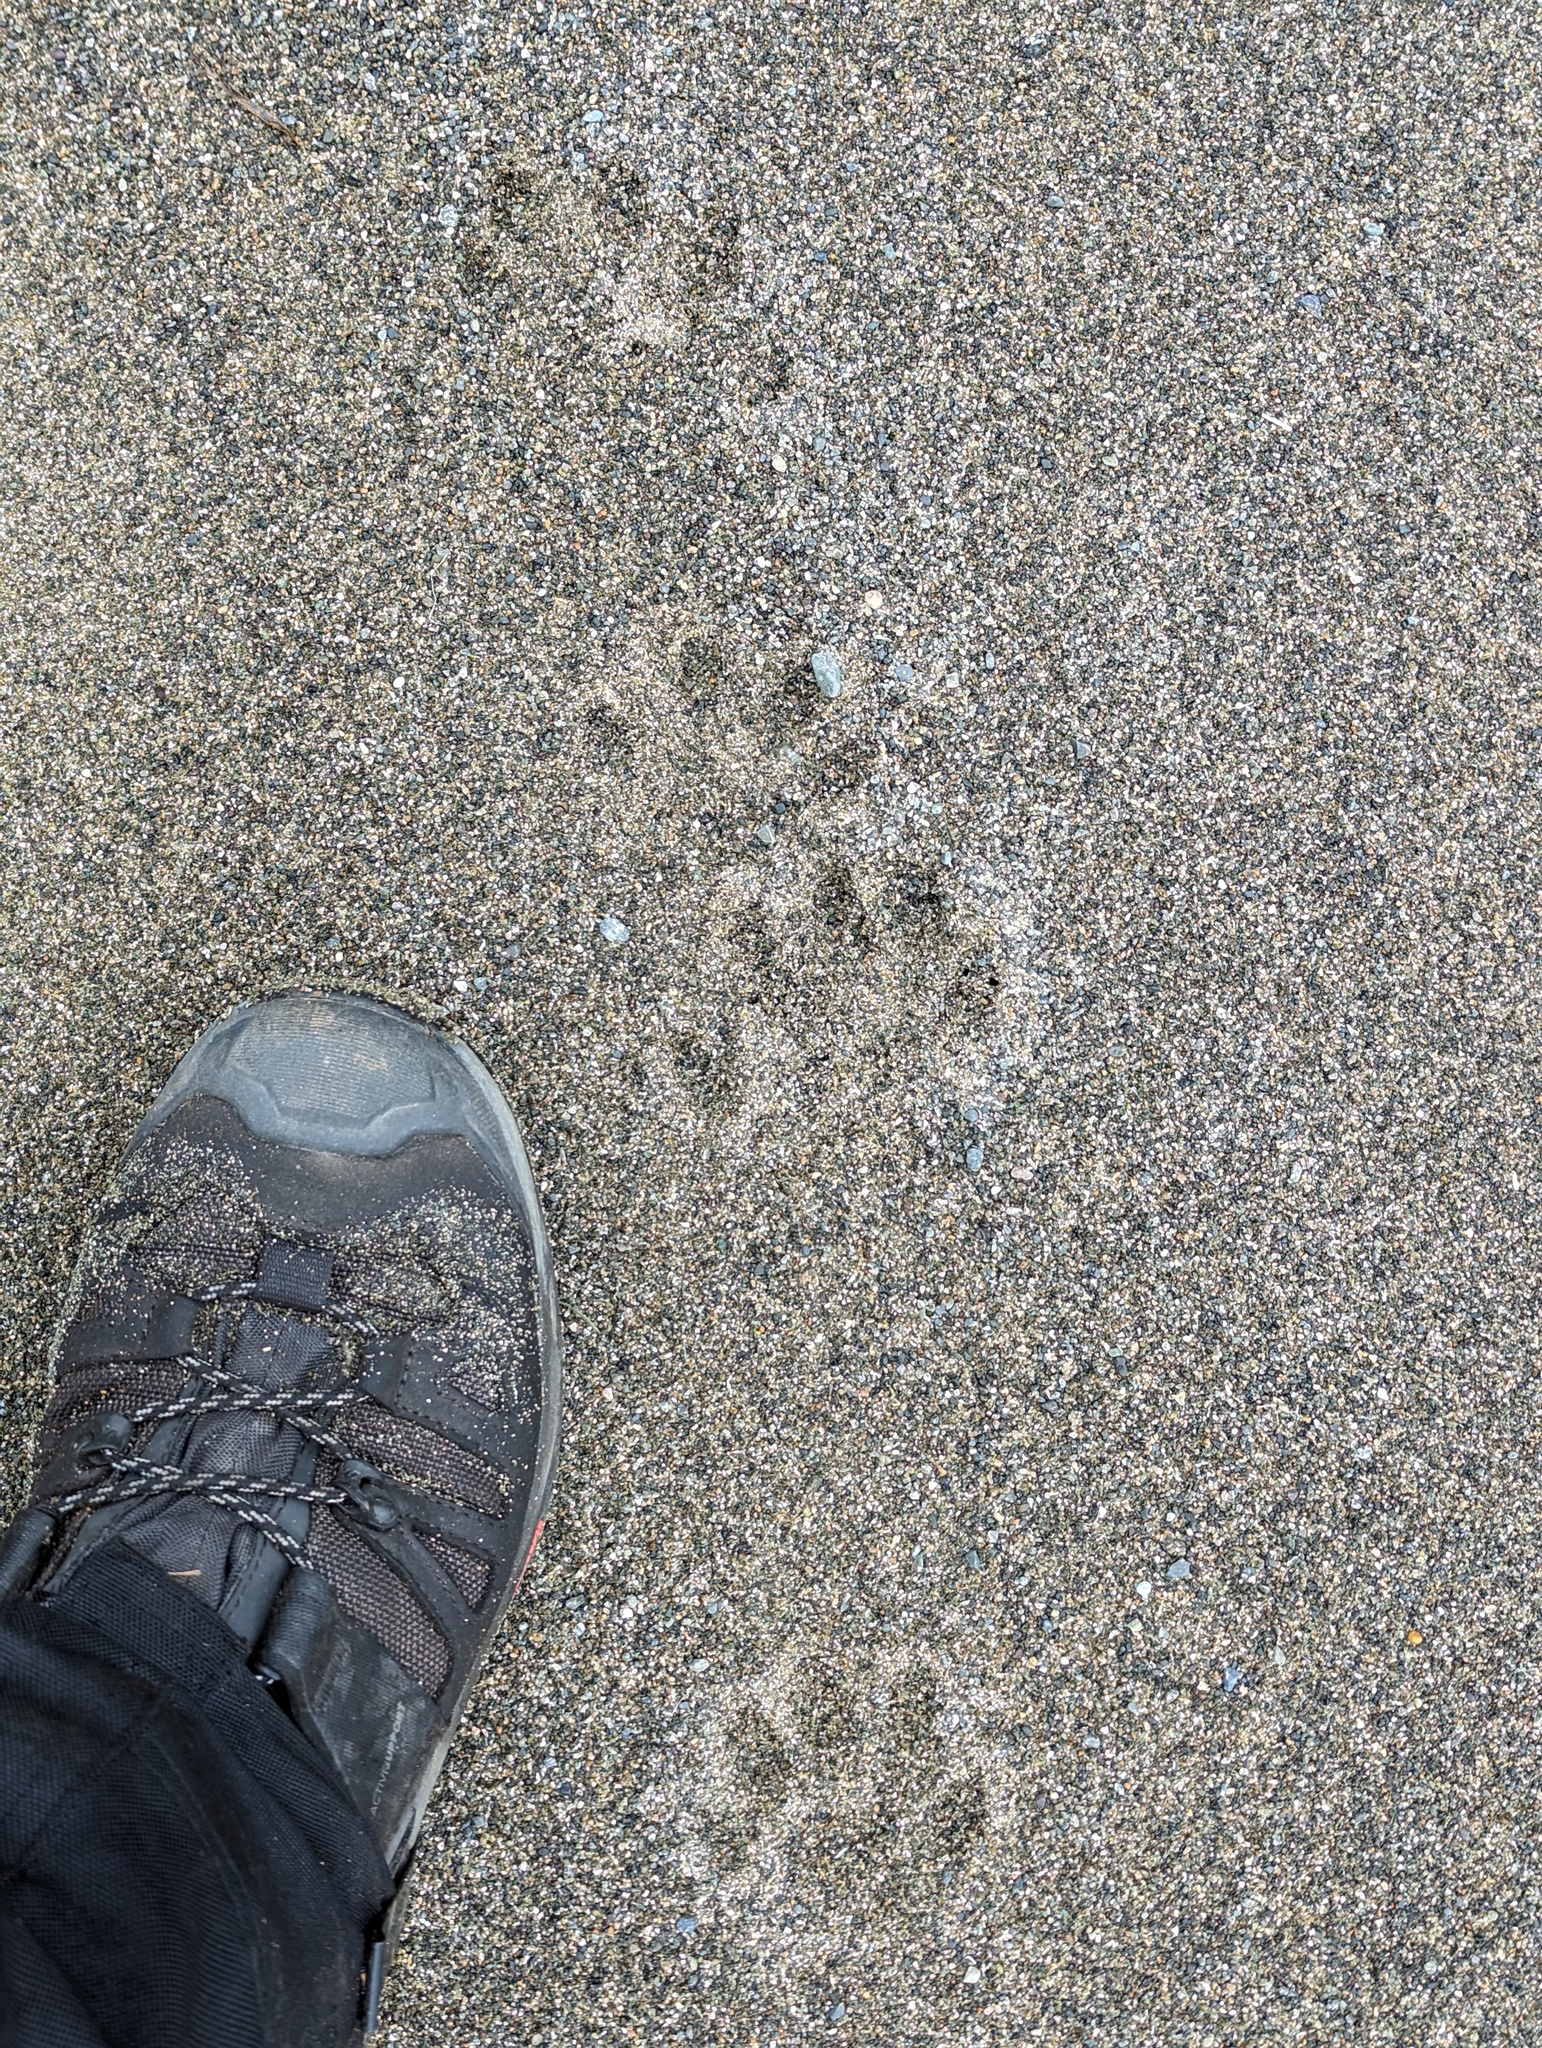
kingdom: Animalia
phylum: Chordata
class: Mammalia
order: Carnivora
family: Mustelidae
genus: Lontra
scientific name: Lontra canadensis
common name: North american river otter
